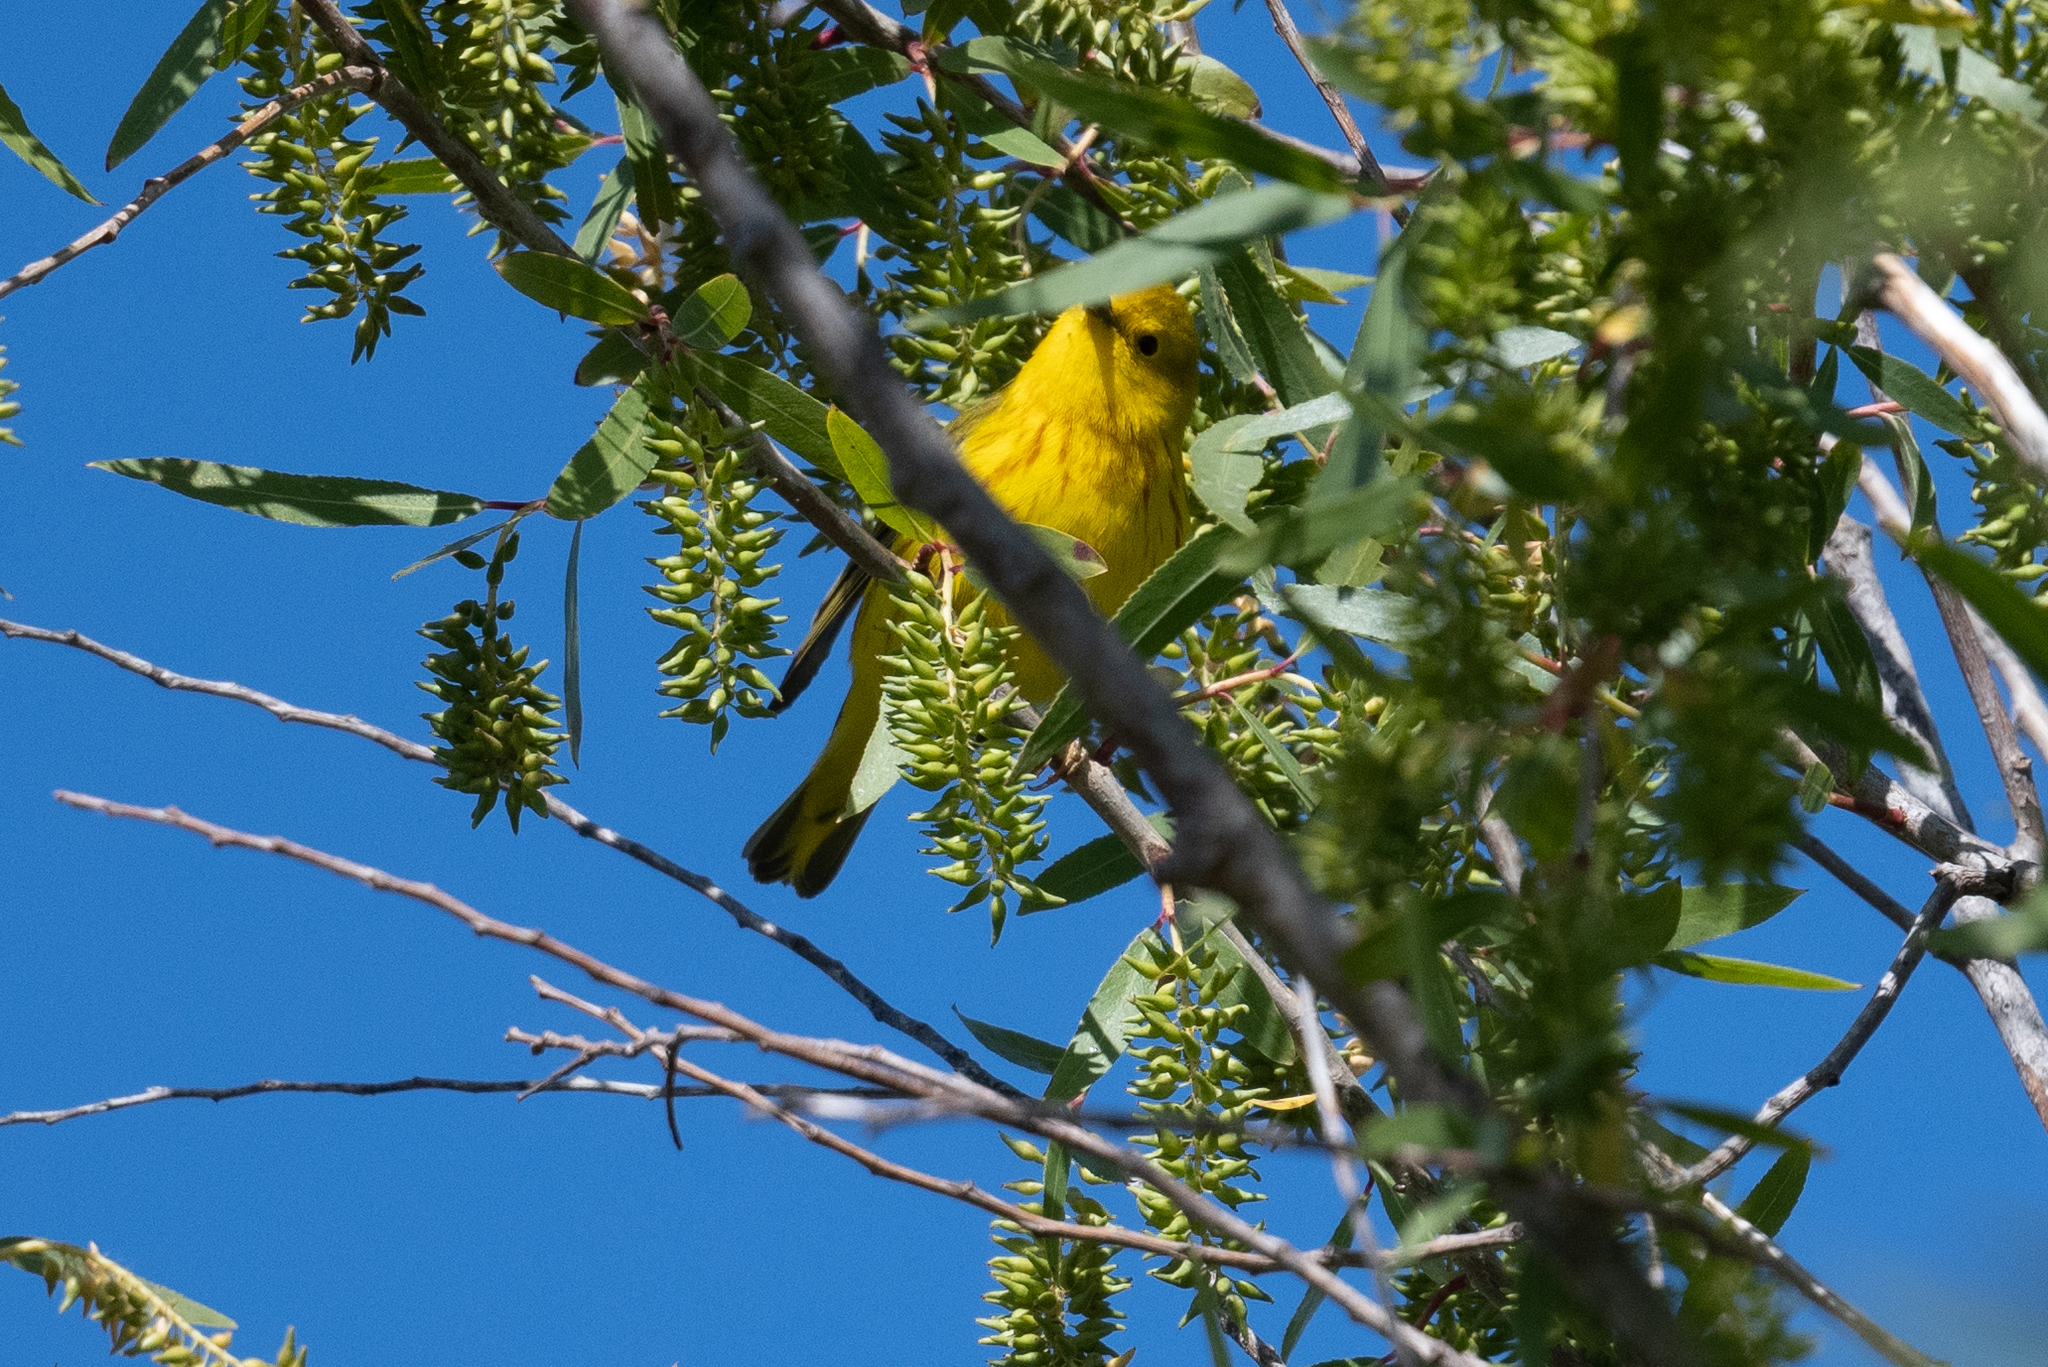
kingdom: Animalia
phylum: Chordata
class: Aves
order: Passeriformes
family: Parulidae
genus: Setophaga
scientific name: Setophaga petechia
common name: Yellow warbler
